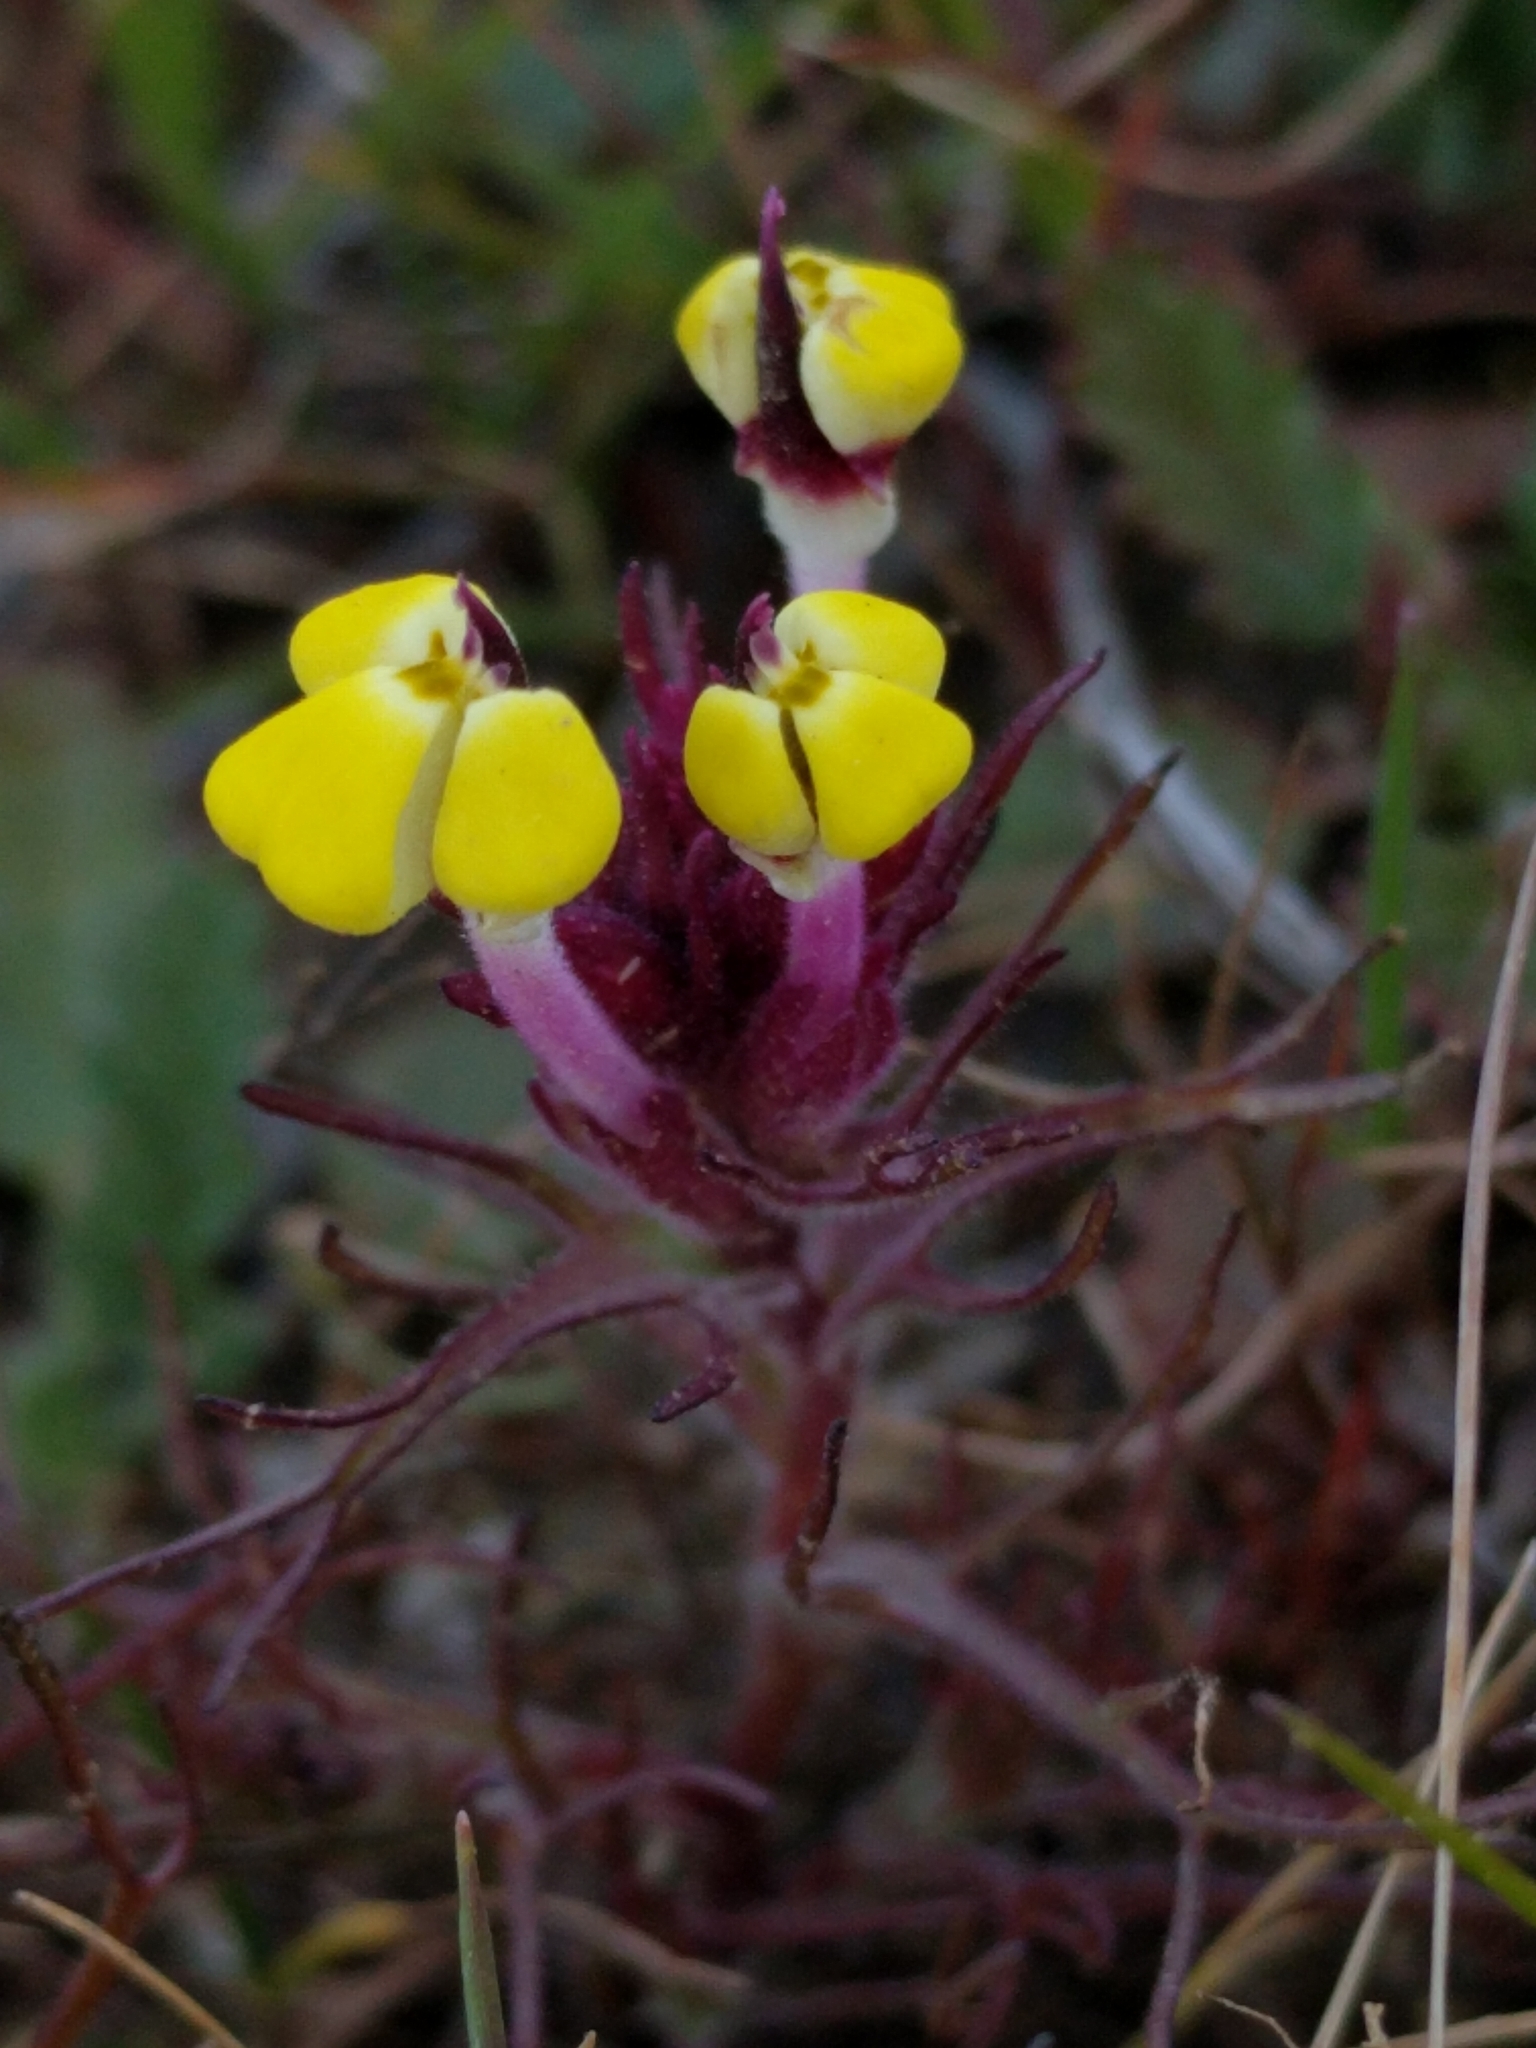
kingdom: Plantae
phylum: Tracheophyta
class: Magnoliopsida
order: Lamiales
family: Orobanchaceae
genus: Triphysaria
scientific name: Triphysaria eriantha
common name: Johnny-tuck
